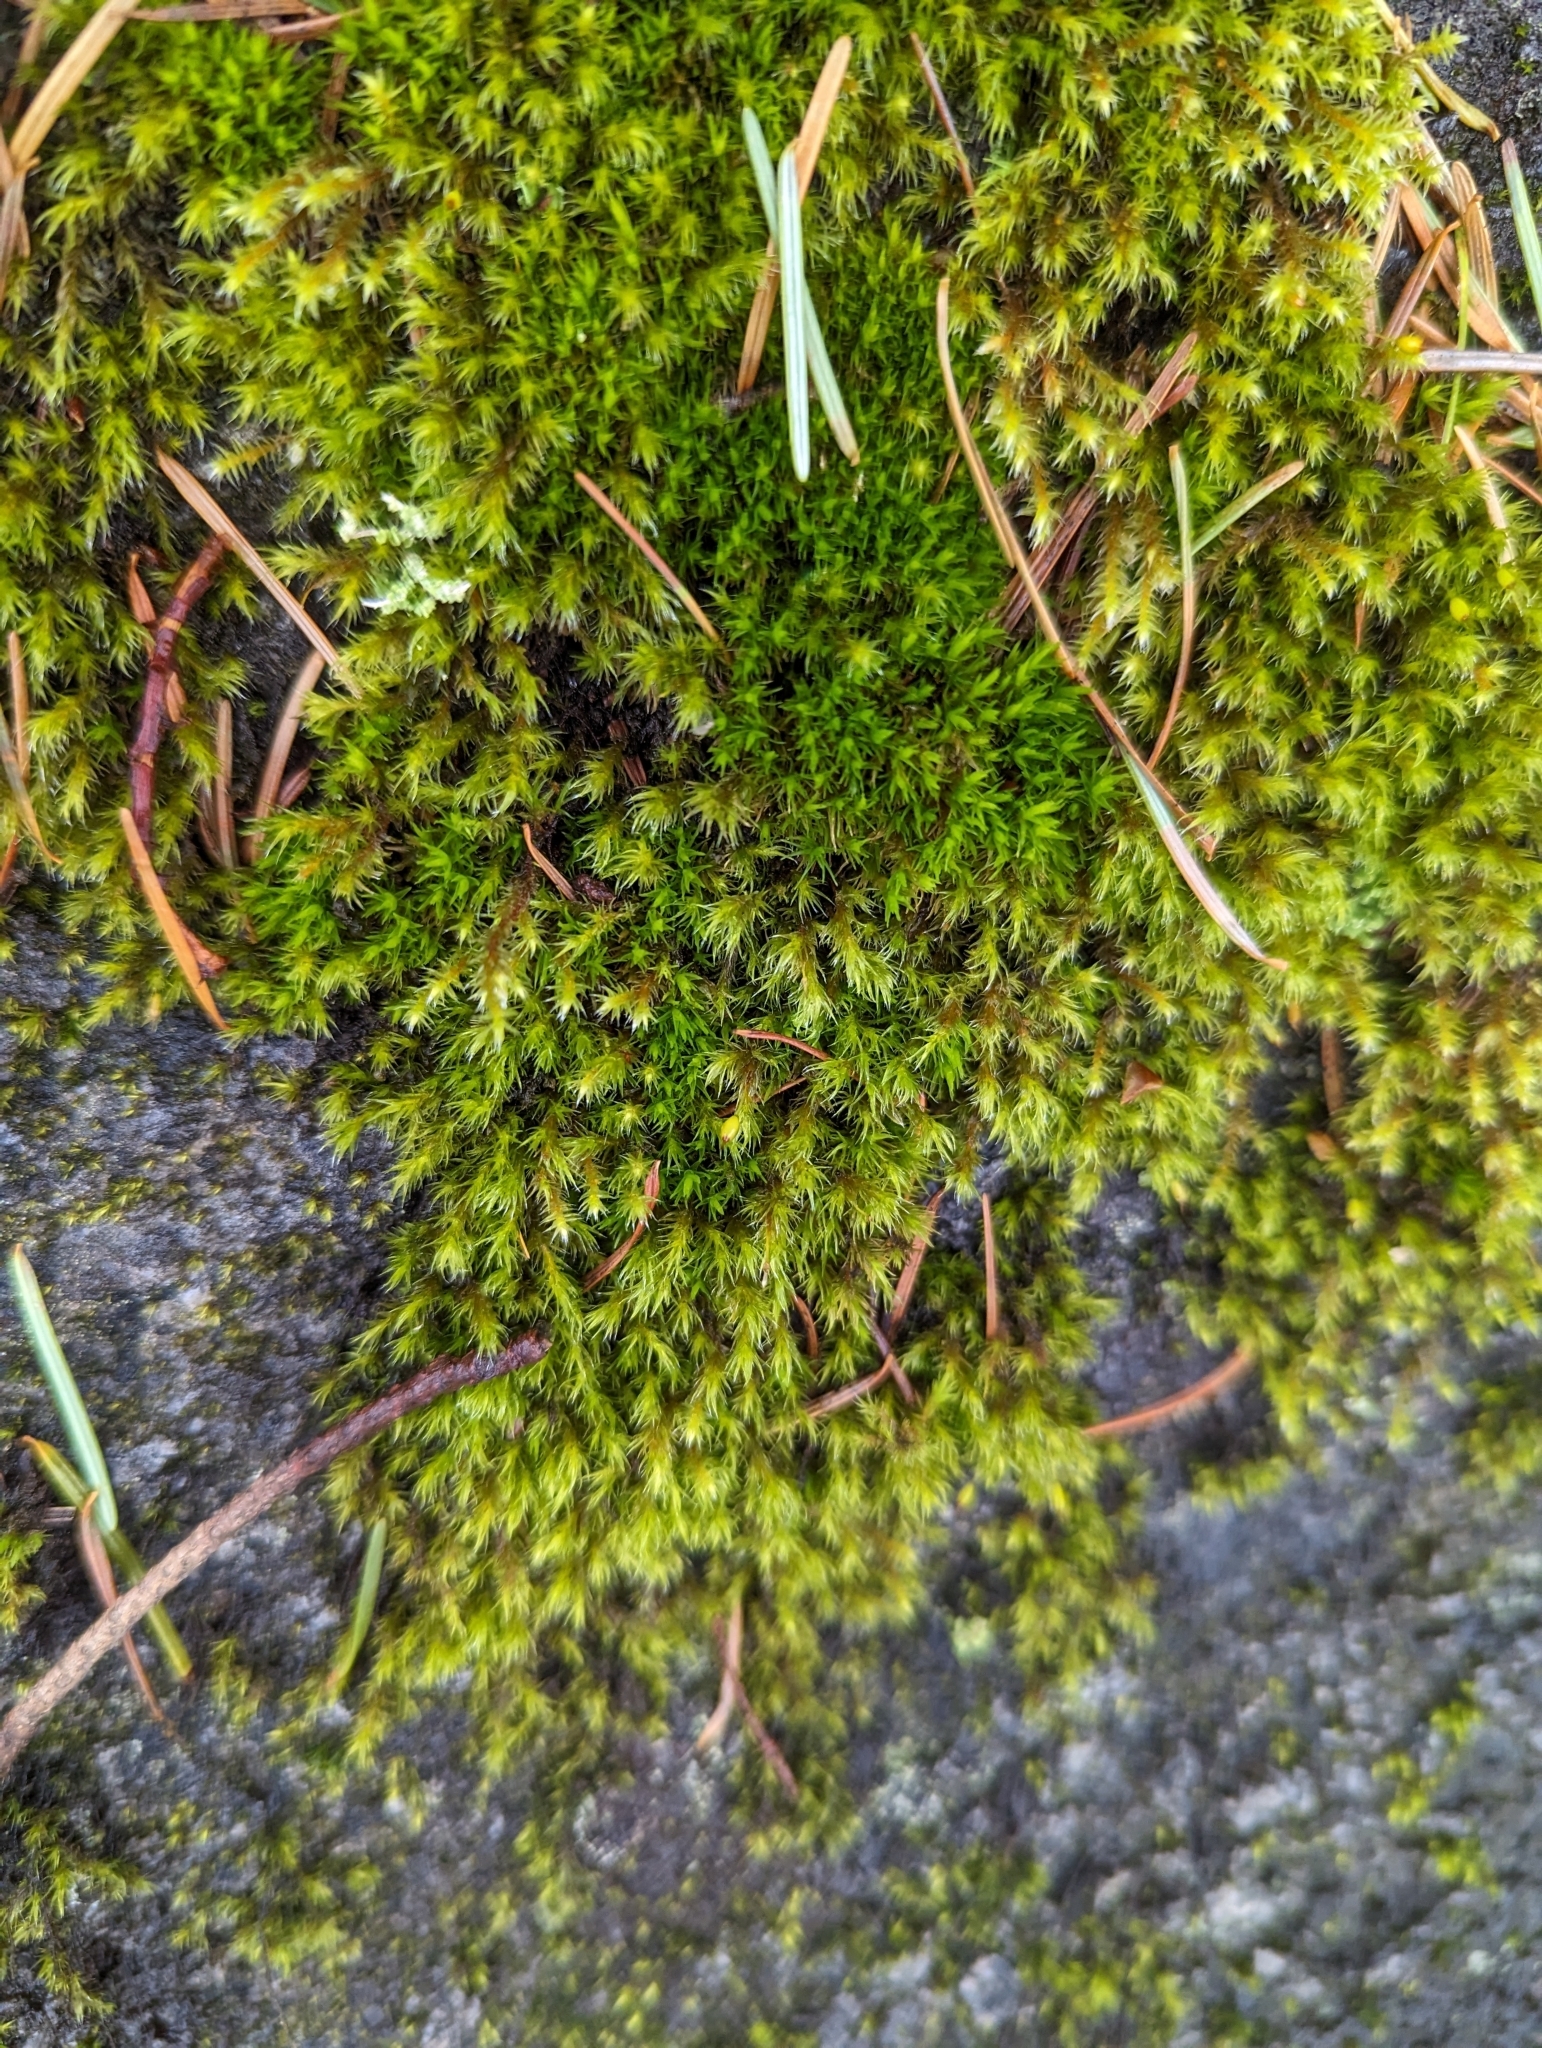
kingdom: Plantae
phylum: Bryophyta
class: Bryopsida
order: Grimmiales
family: Grimmiaceae
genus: Bucklandiella
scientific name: Bucklandiella heterosticha
